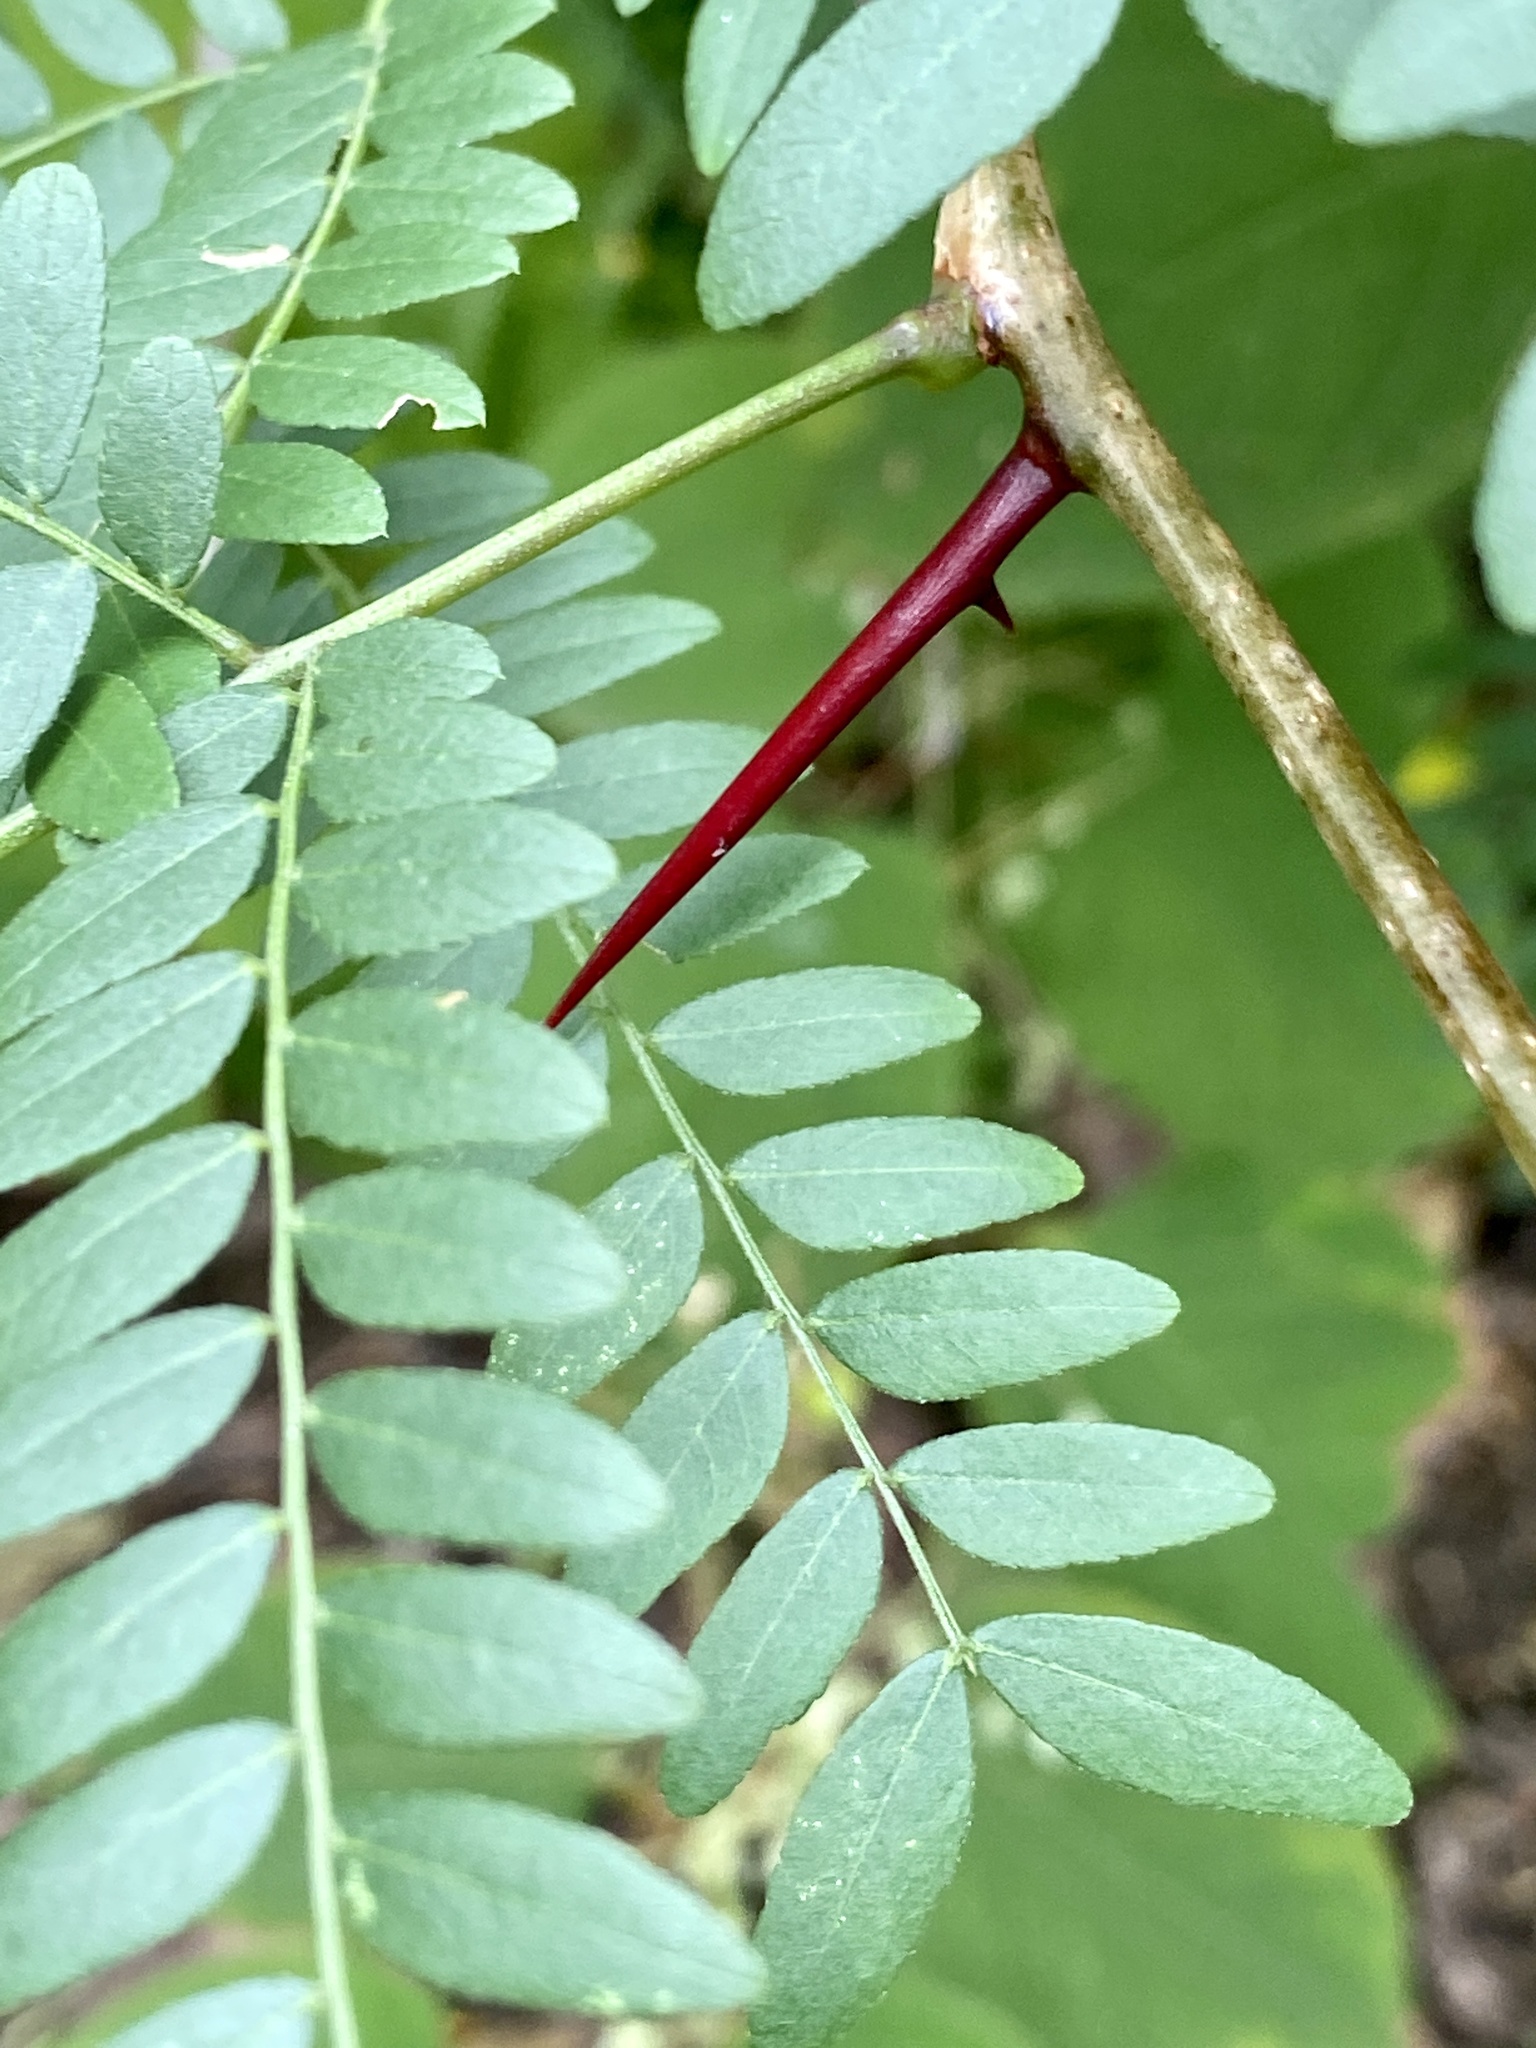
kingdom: Plantae
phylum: Tracheophyta
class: Magnoliopsida
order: Fabales
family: Fabaceae
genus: Gleditsia
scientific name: Gleditsia triacanthos
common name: Common honeylocust
